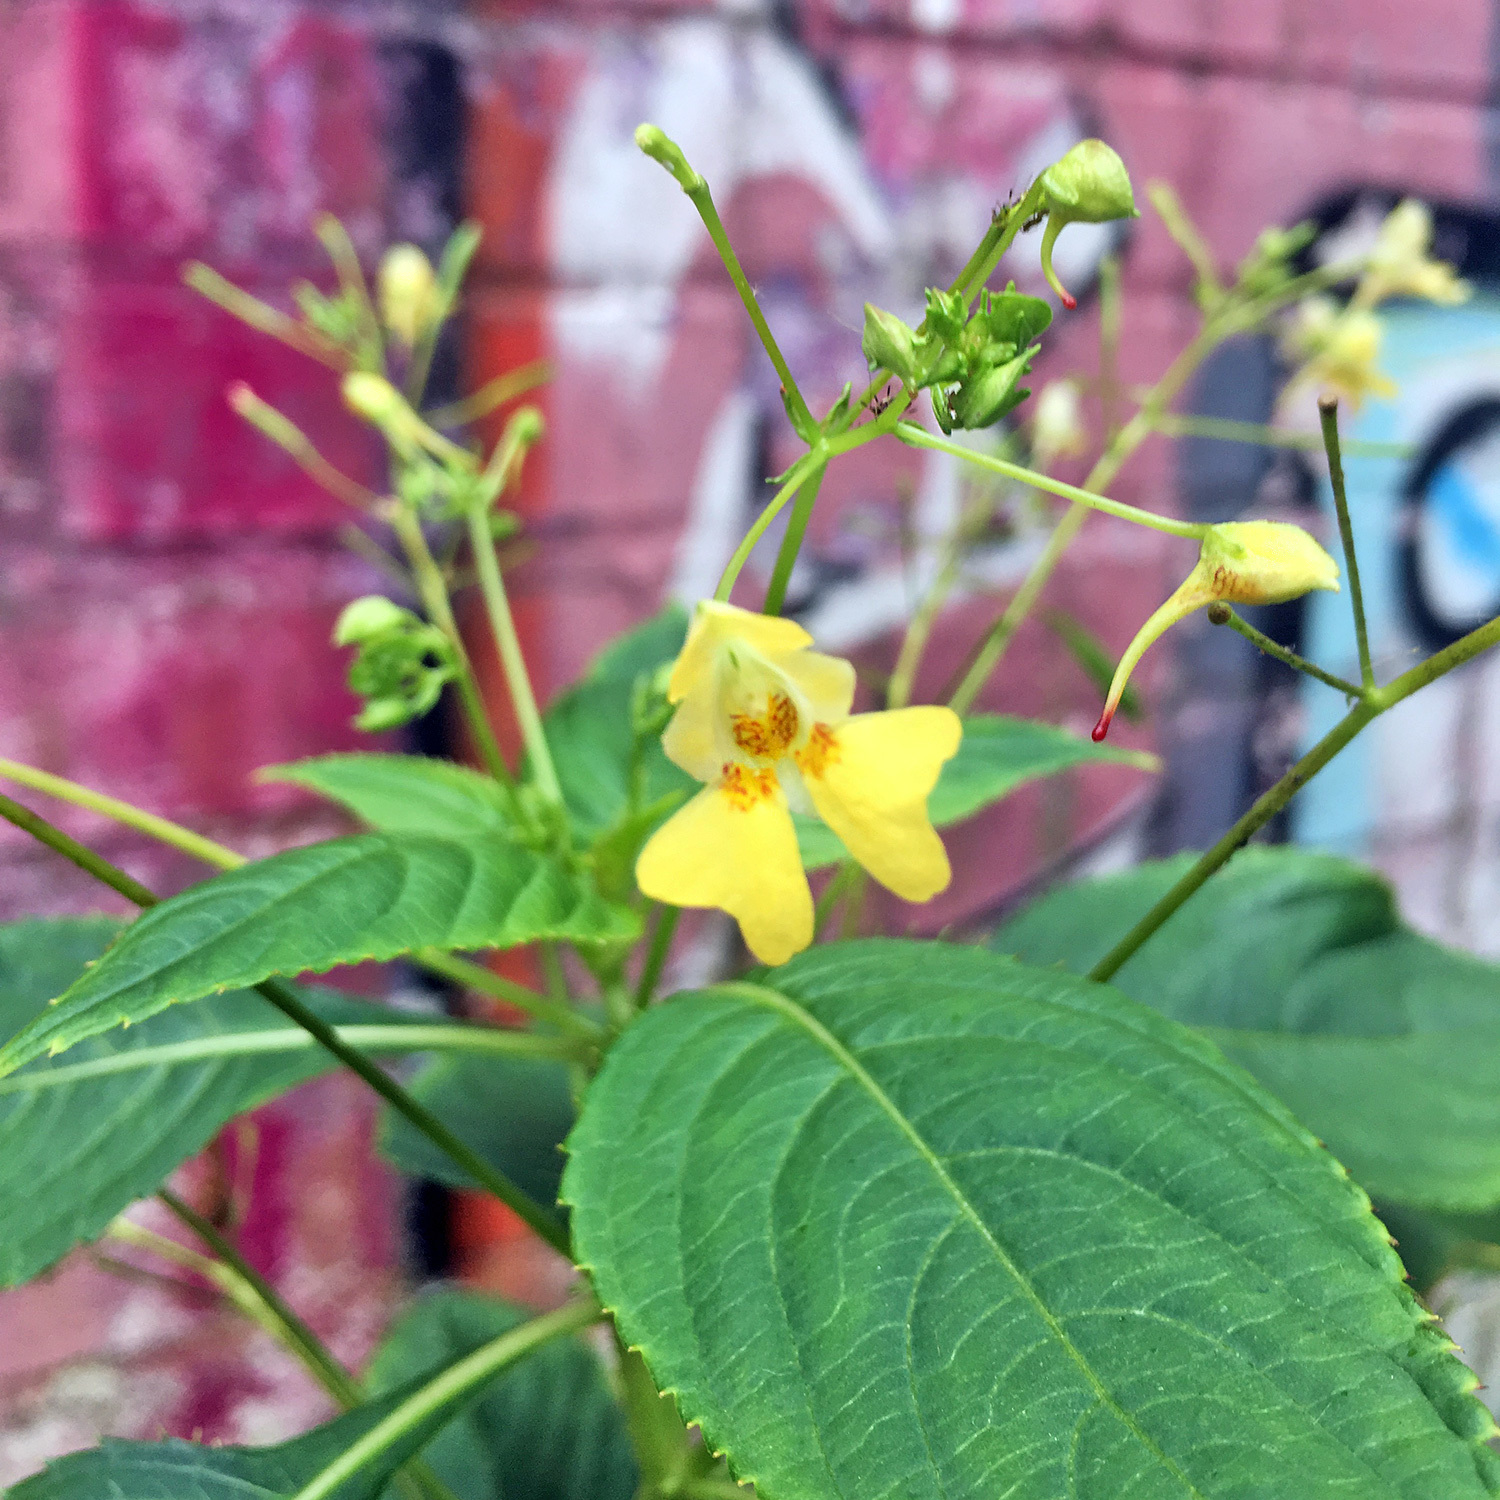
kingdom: Plantae
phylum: Tracheophyta
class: Magnoliopsida
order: Ericales
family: Balsaminaceae
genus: Impatiens
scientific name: Impatiens parviflora
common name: Small balsam
